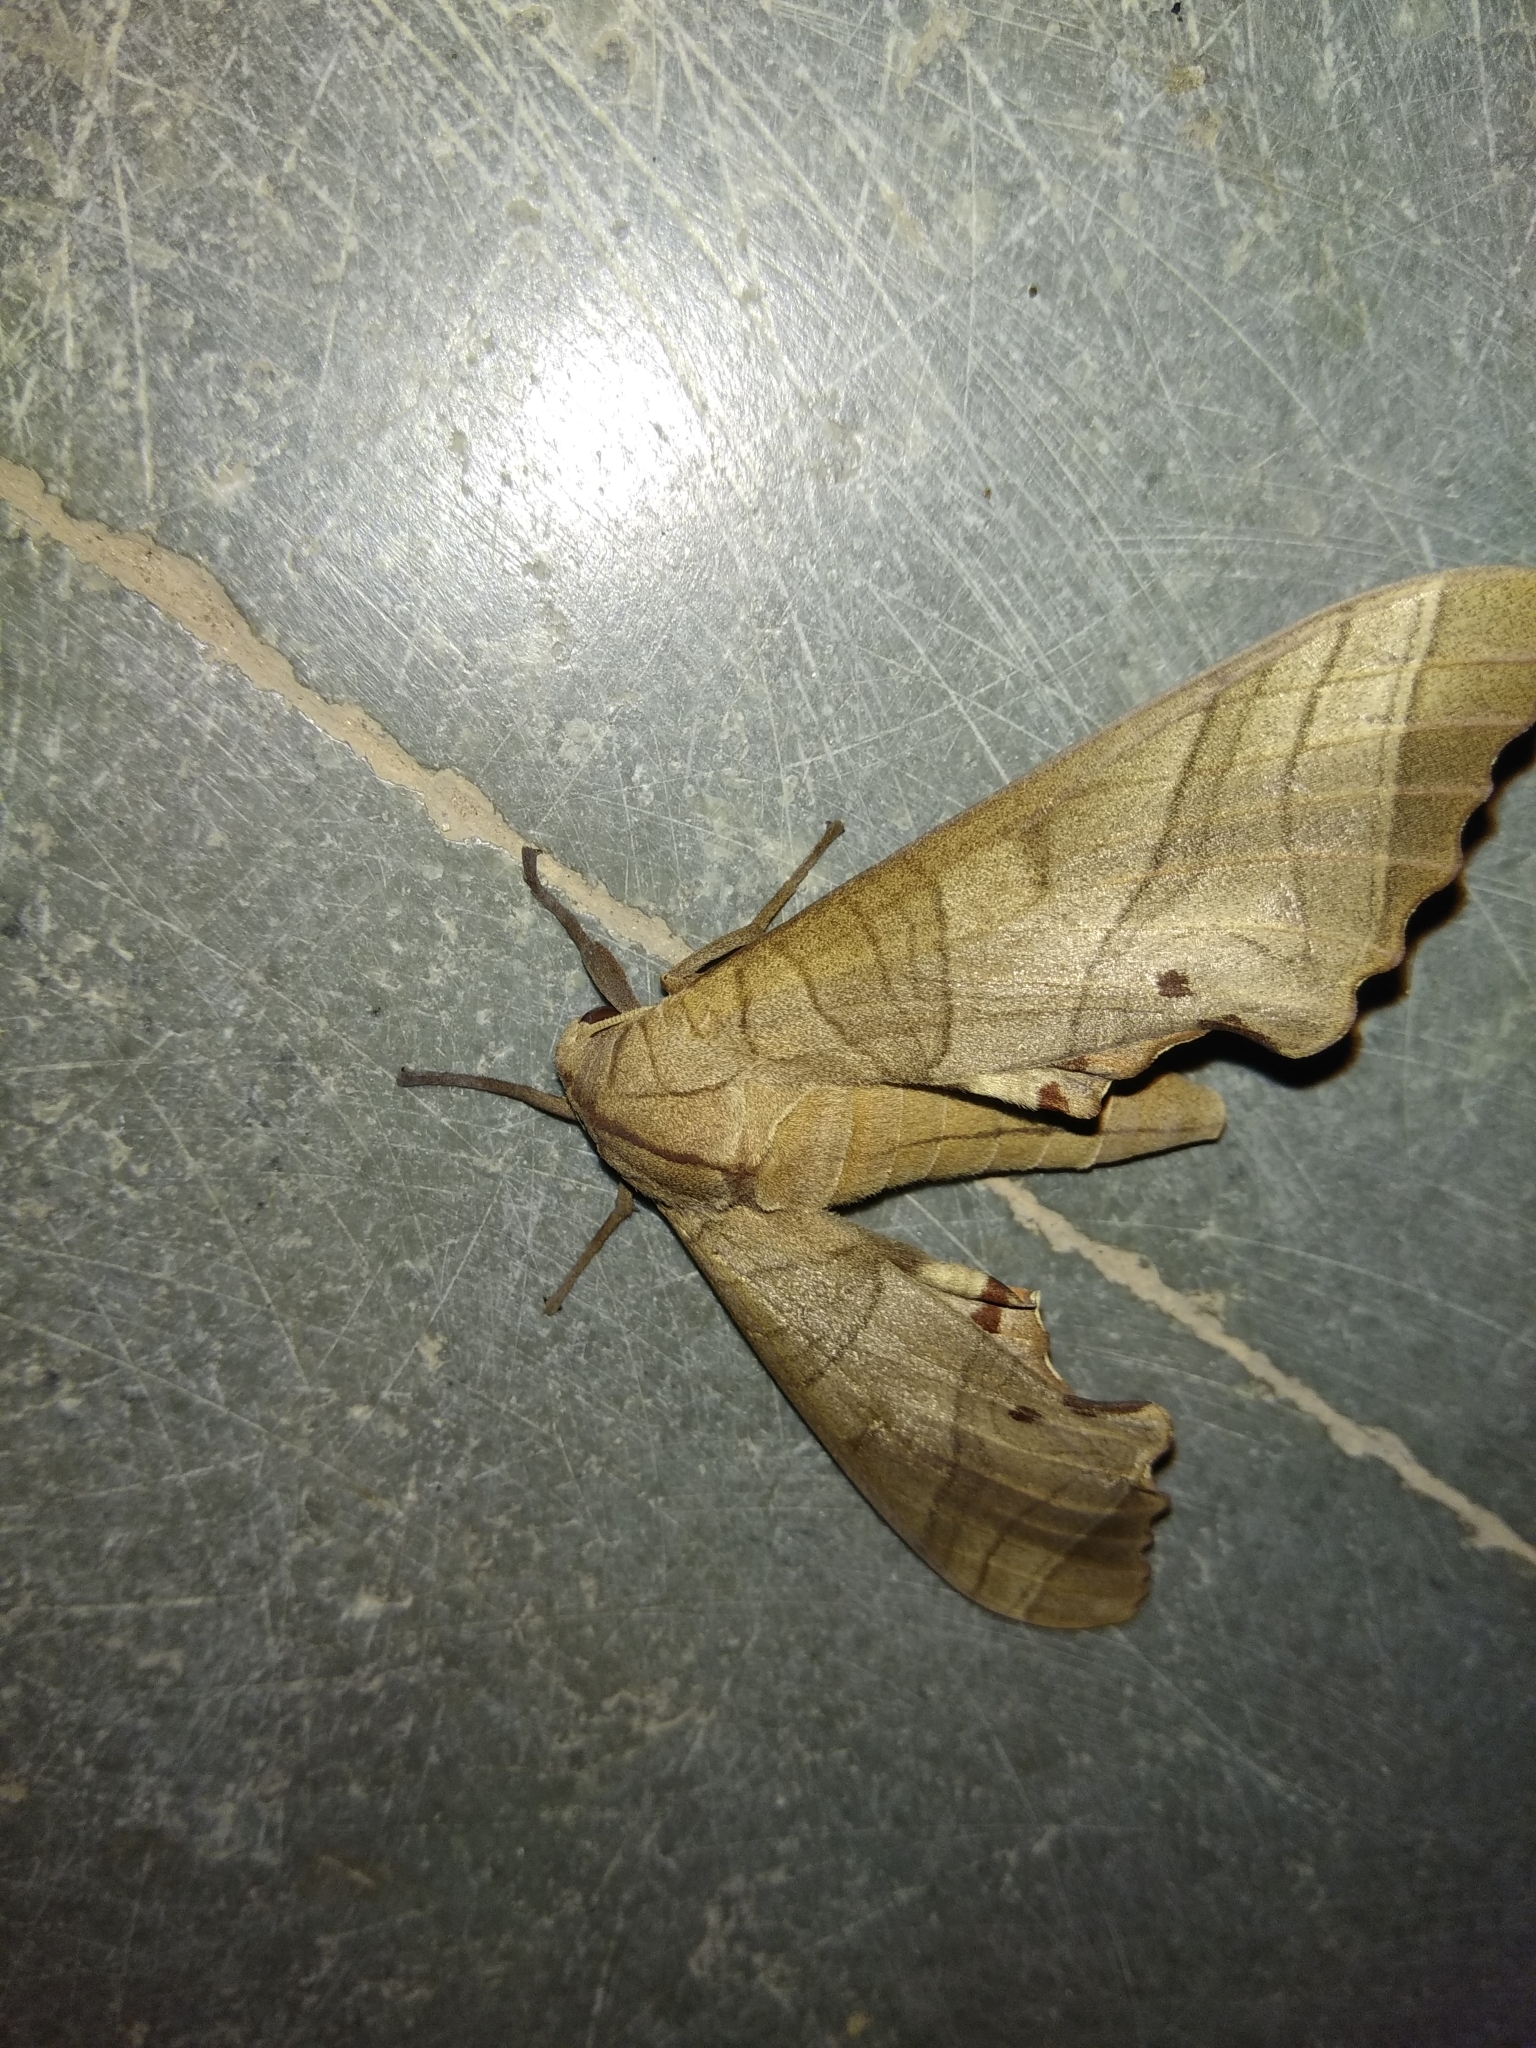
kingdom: Animalia
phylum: Arthropoda
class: Insecta
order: Lepidoptera
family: Sphingidae
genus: Marumba
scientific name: Marumba dyras
